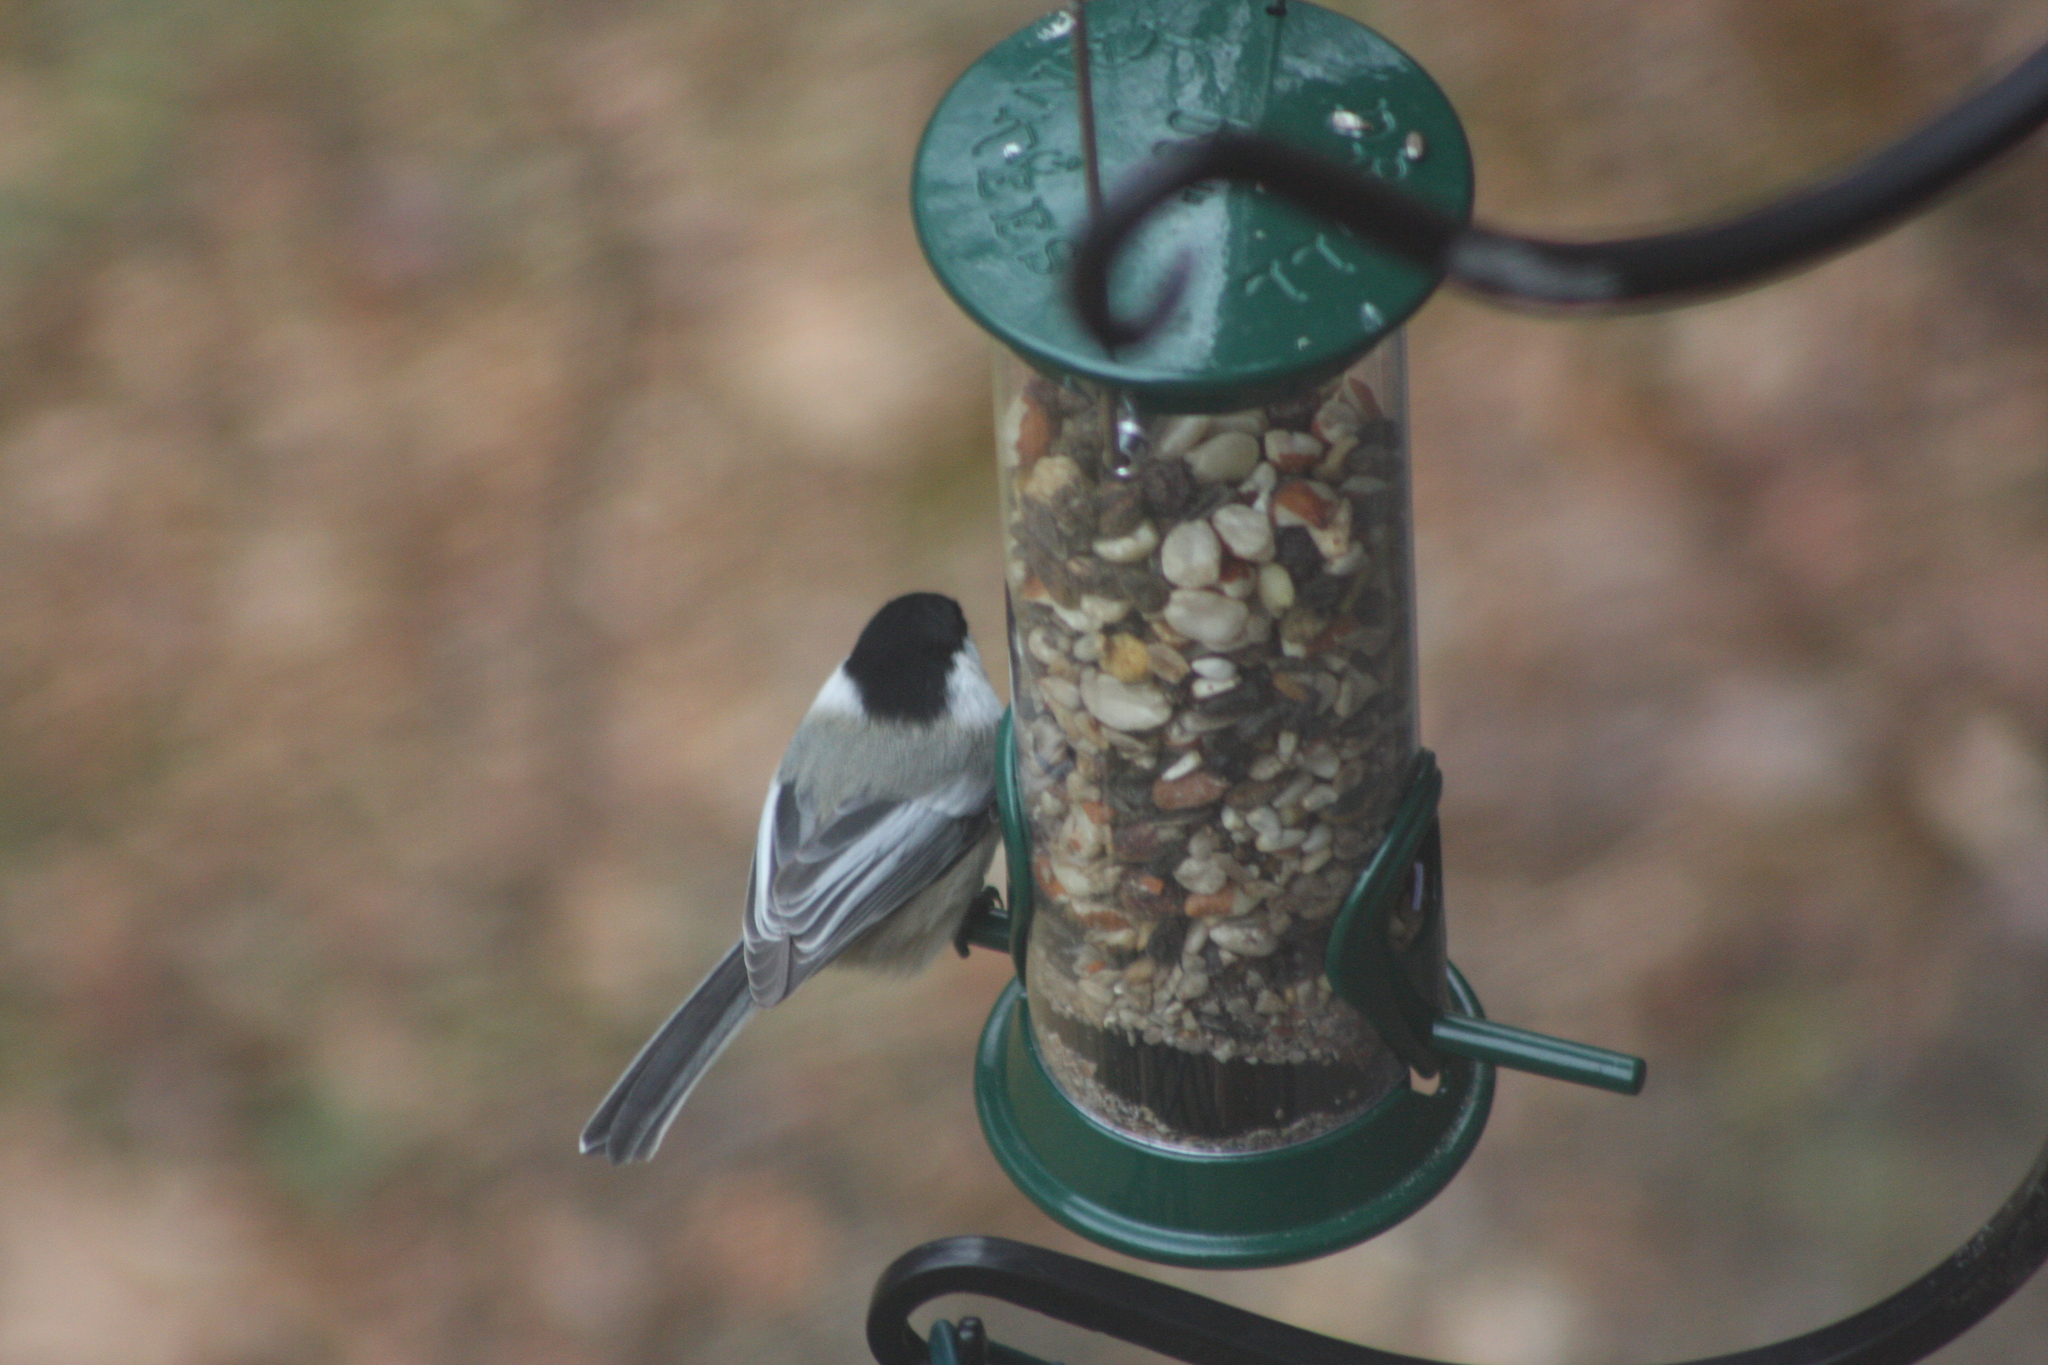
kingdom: Animalia
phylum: Chordata
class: Aves
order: Passeriformes
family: Paridae
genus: Poecile
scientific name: Poecile atricapillus
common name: Black-capped chickadee
